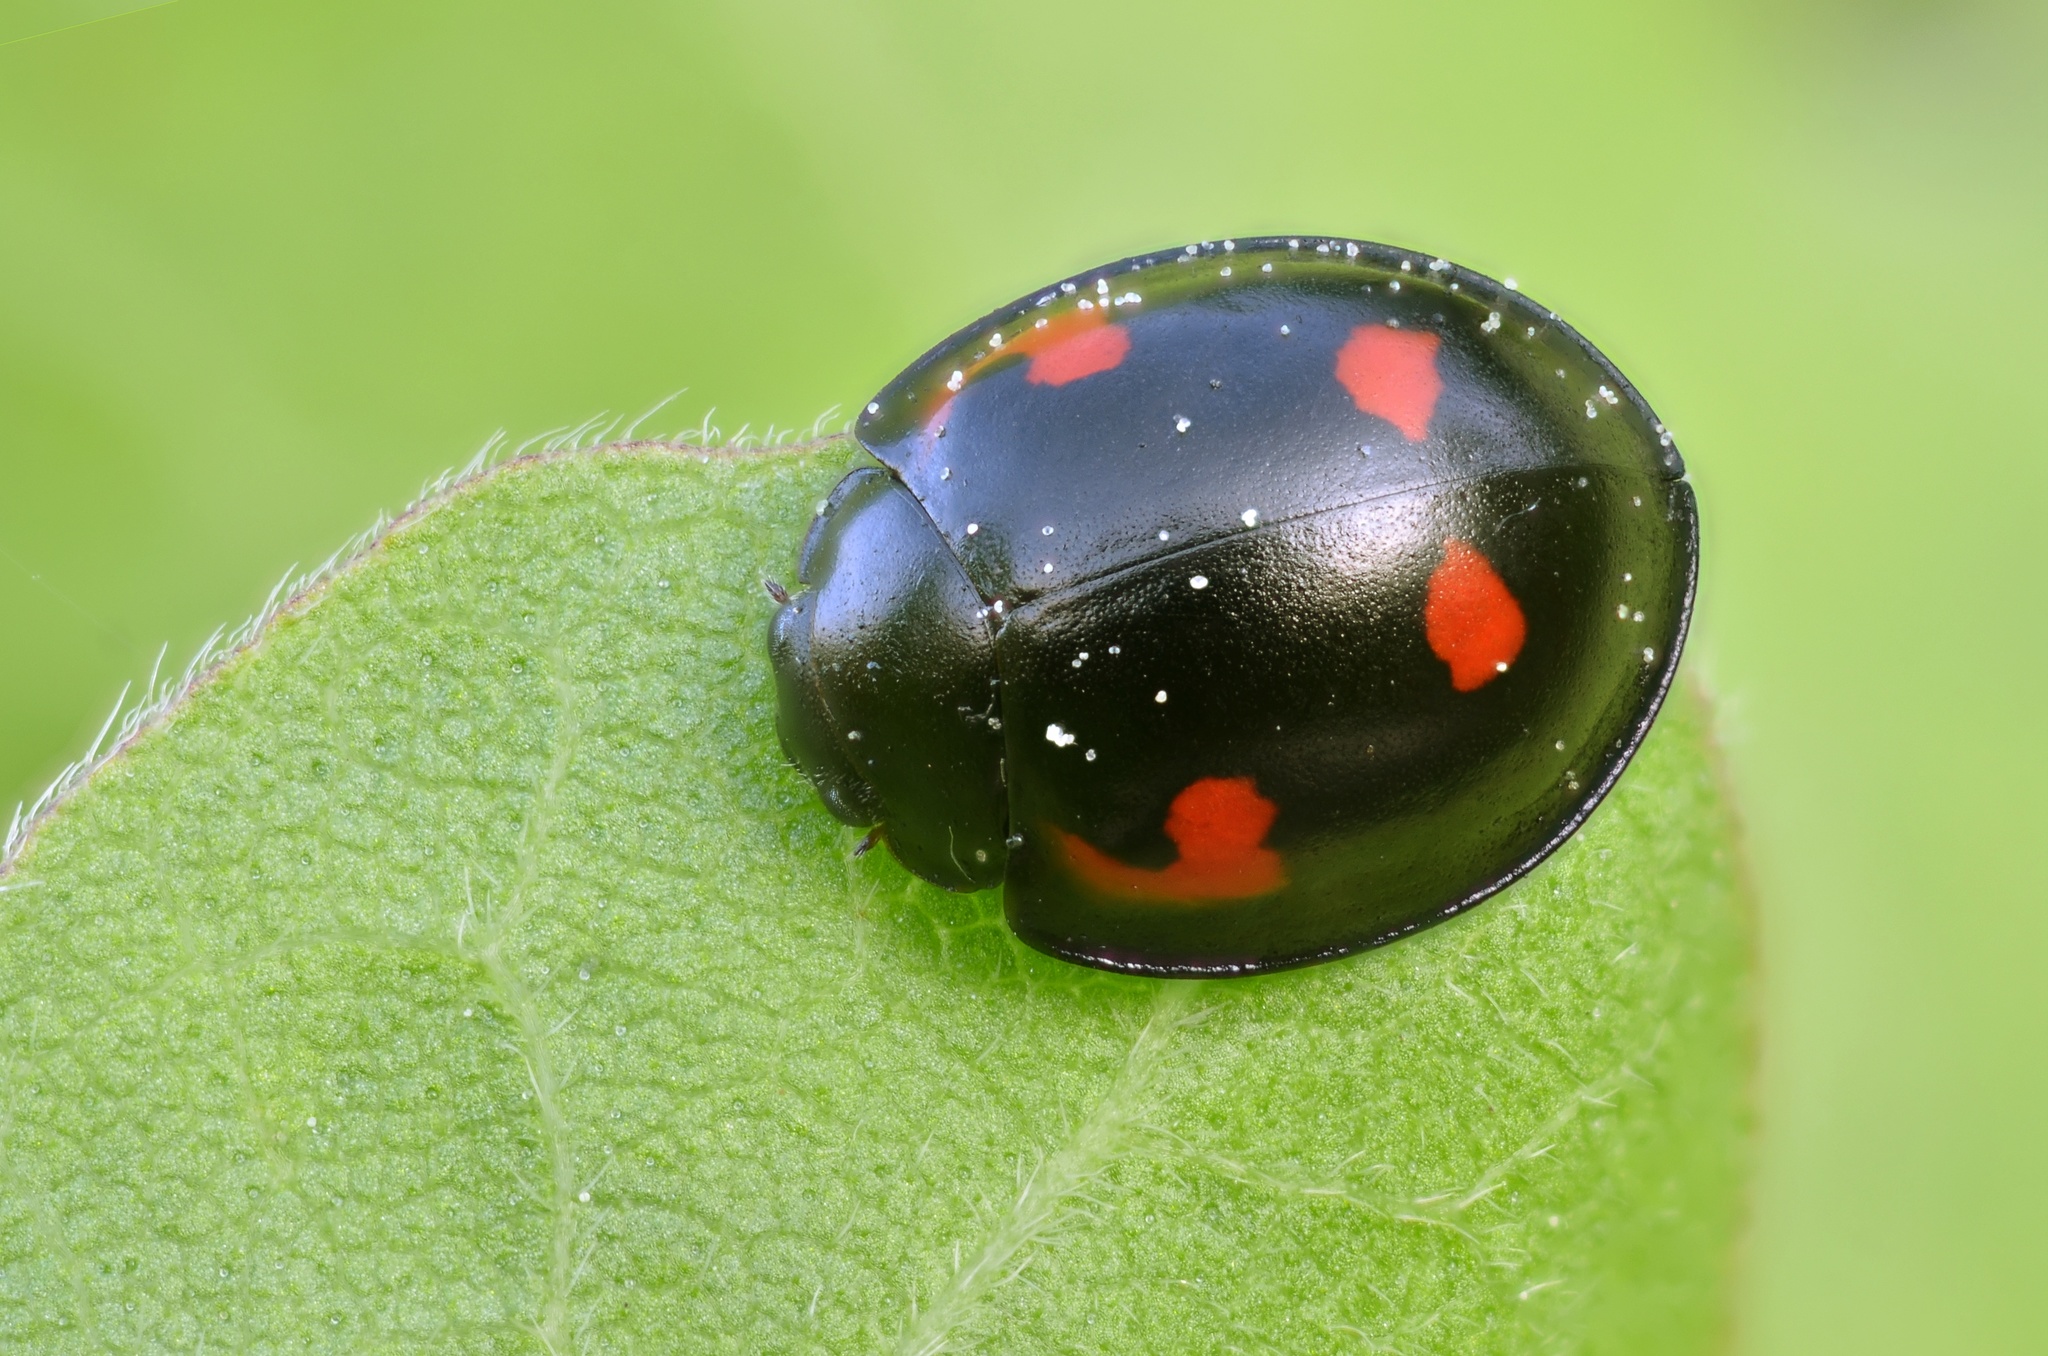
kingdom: Animalia
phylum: Arthropoda
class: Insecta
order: Coleoptera
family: Coccinellidae
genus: Brumus
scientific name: Brumus quadripustulatus
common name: Ladybird beetle
